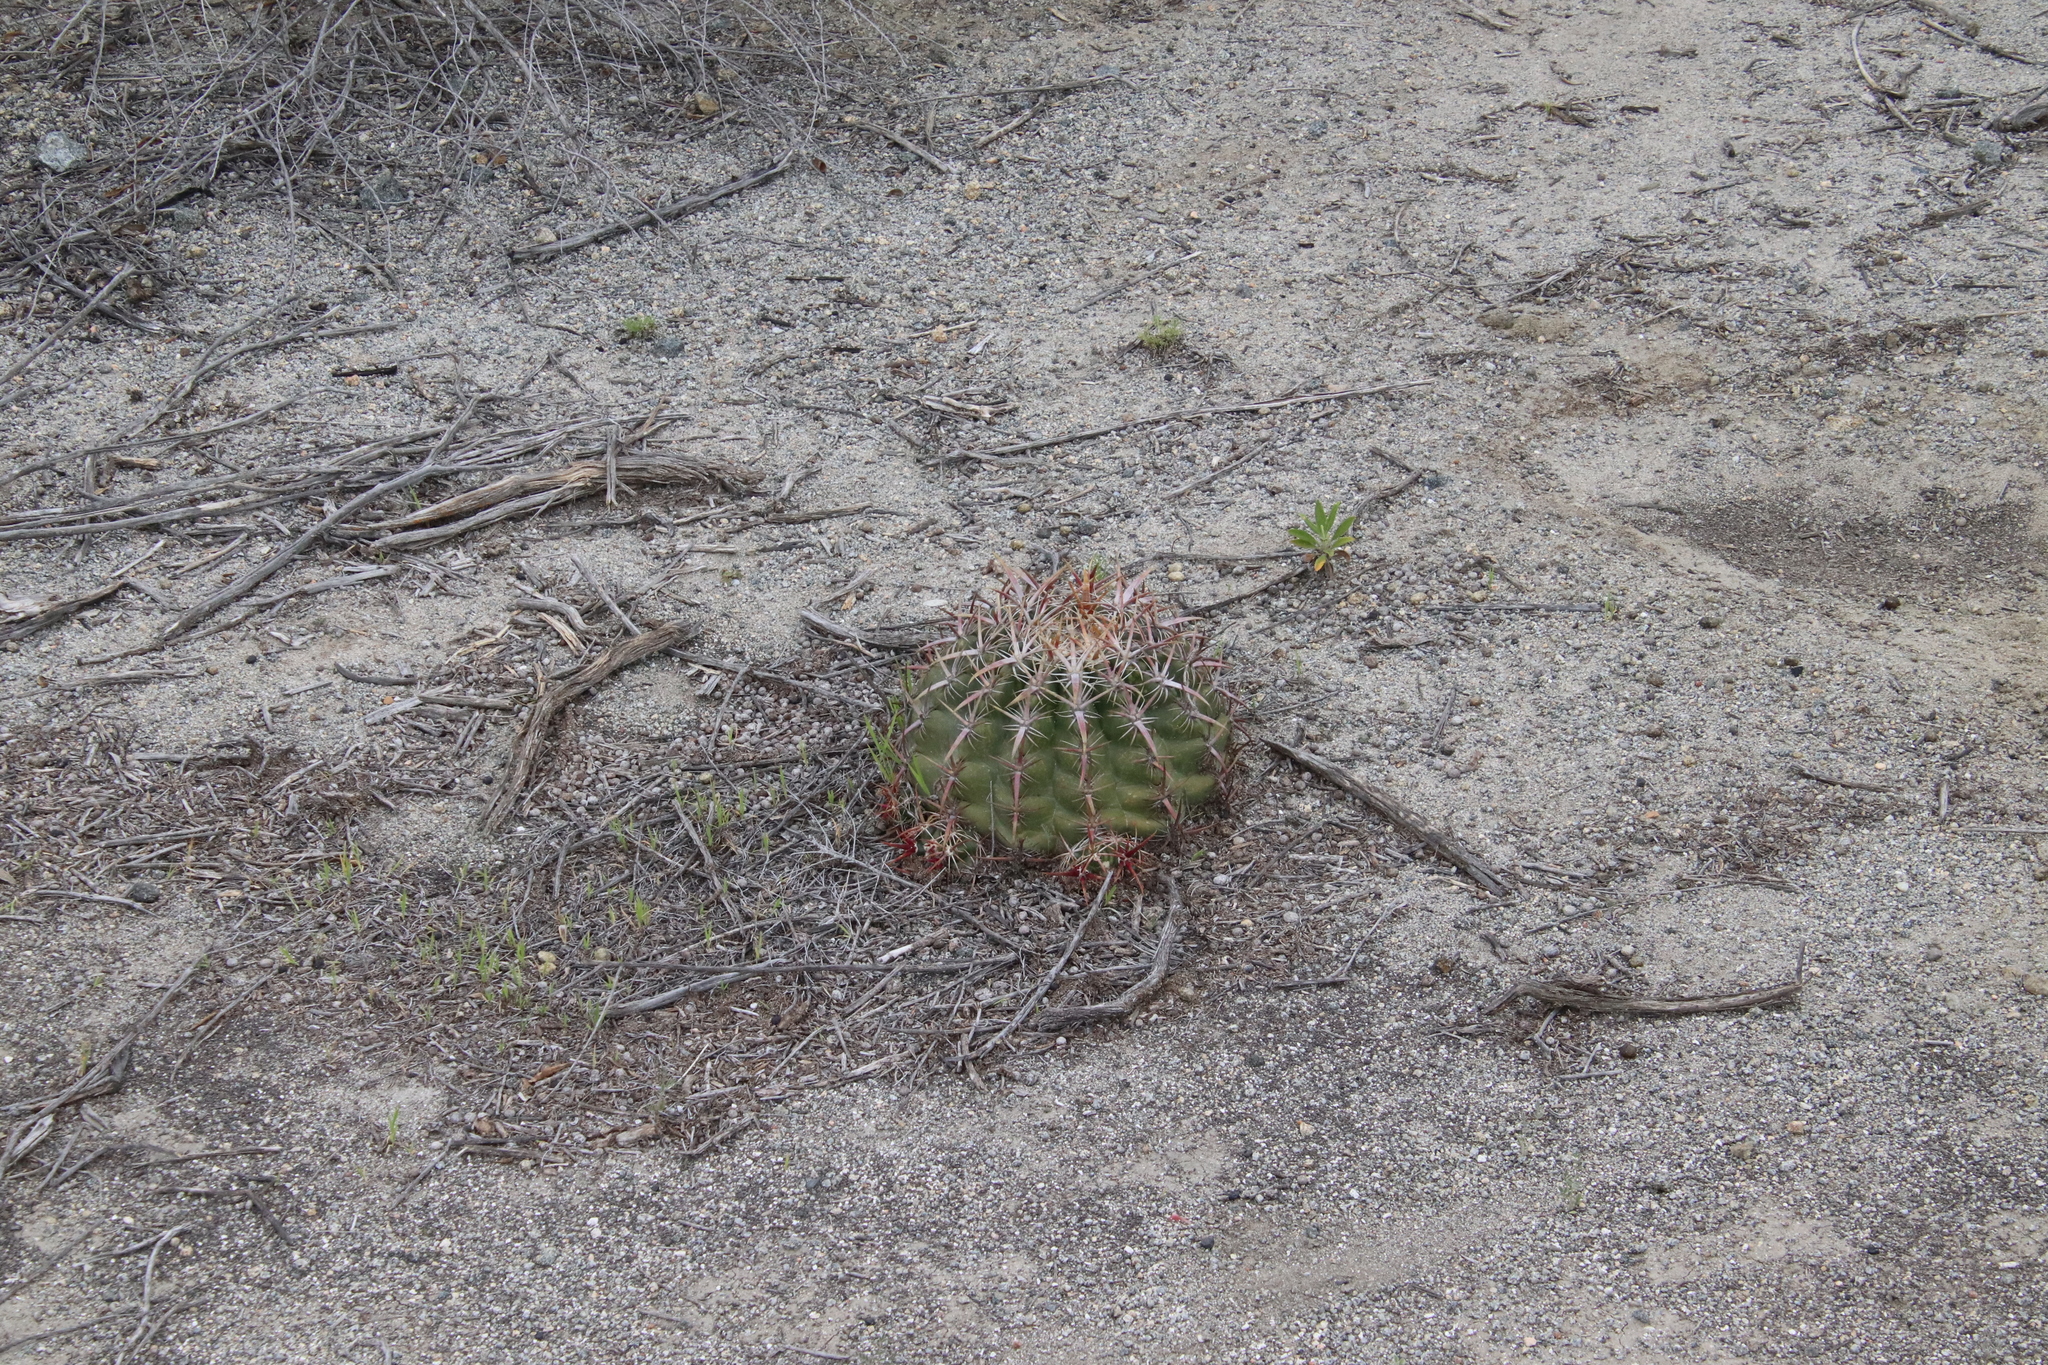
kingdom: Plantae
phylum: Tracheophyta
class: Magnoliopsida
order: Caryophyllales
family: Cactaceae
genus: Ferocactus
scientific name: Ferocactus viridescens
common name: San diego barrel cactus
